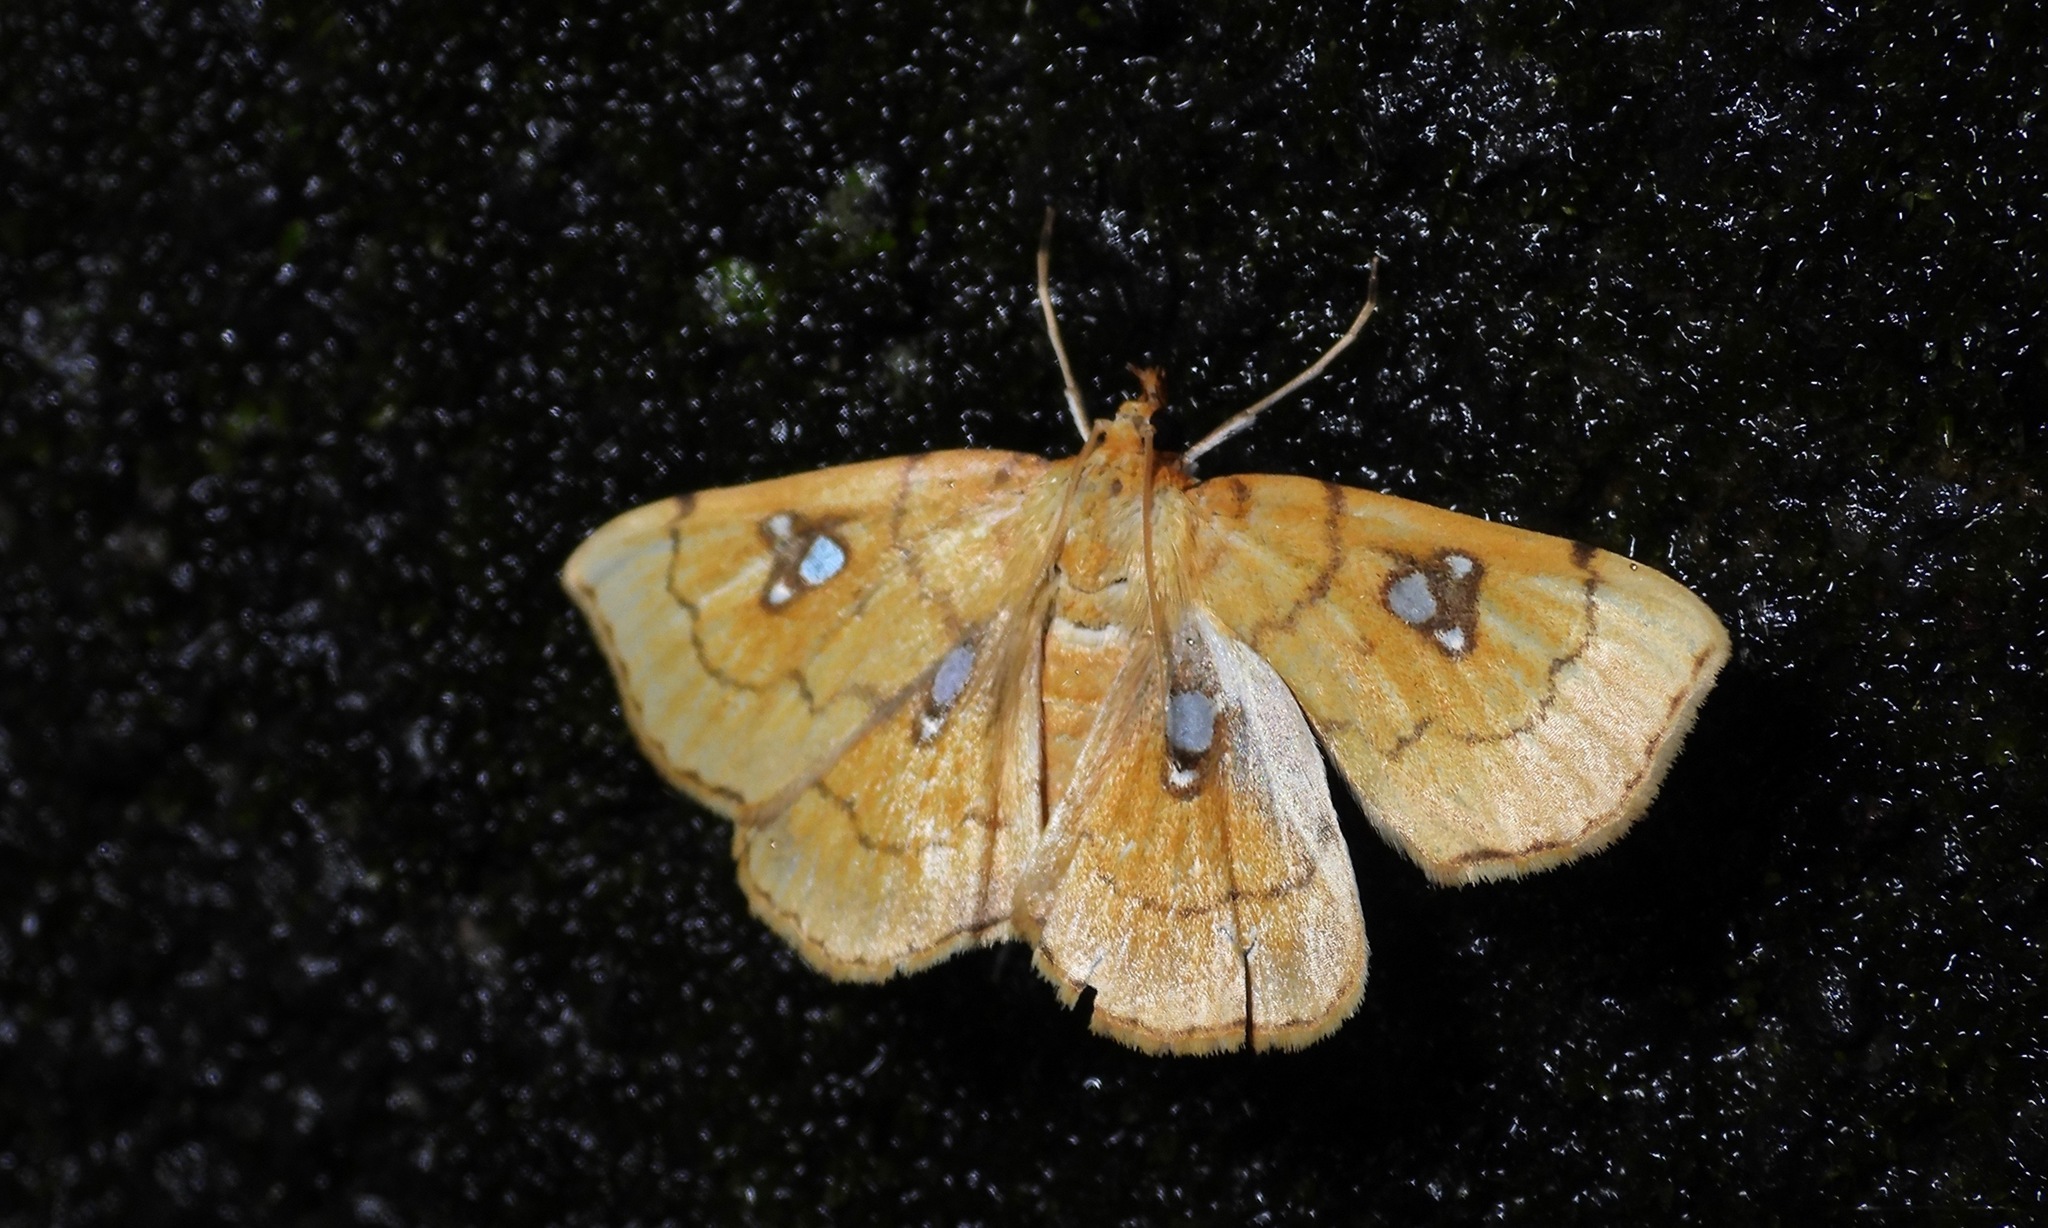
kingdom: Animalia
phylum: Arthropoda
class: Insecta
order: Lepidoptera
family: Crambidae
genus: Cacographis
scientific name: Cacographis osteolalis
